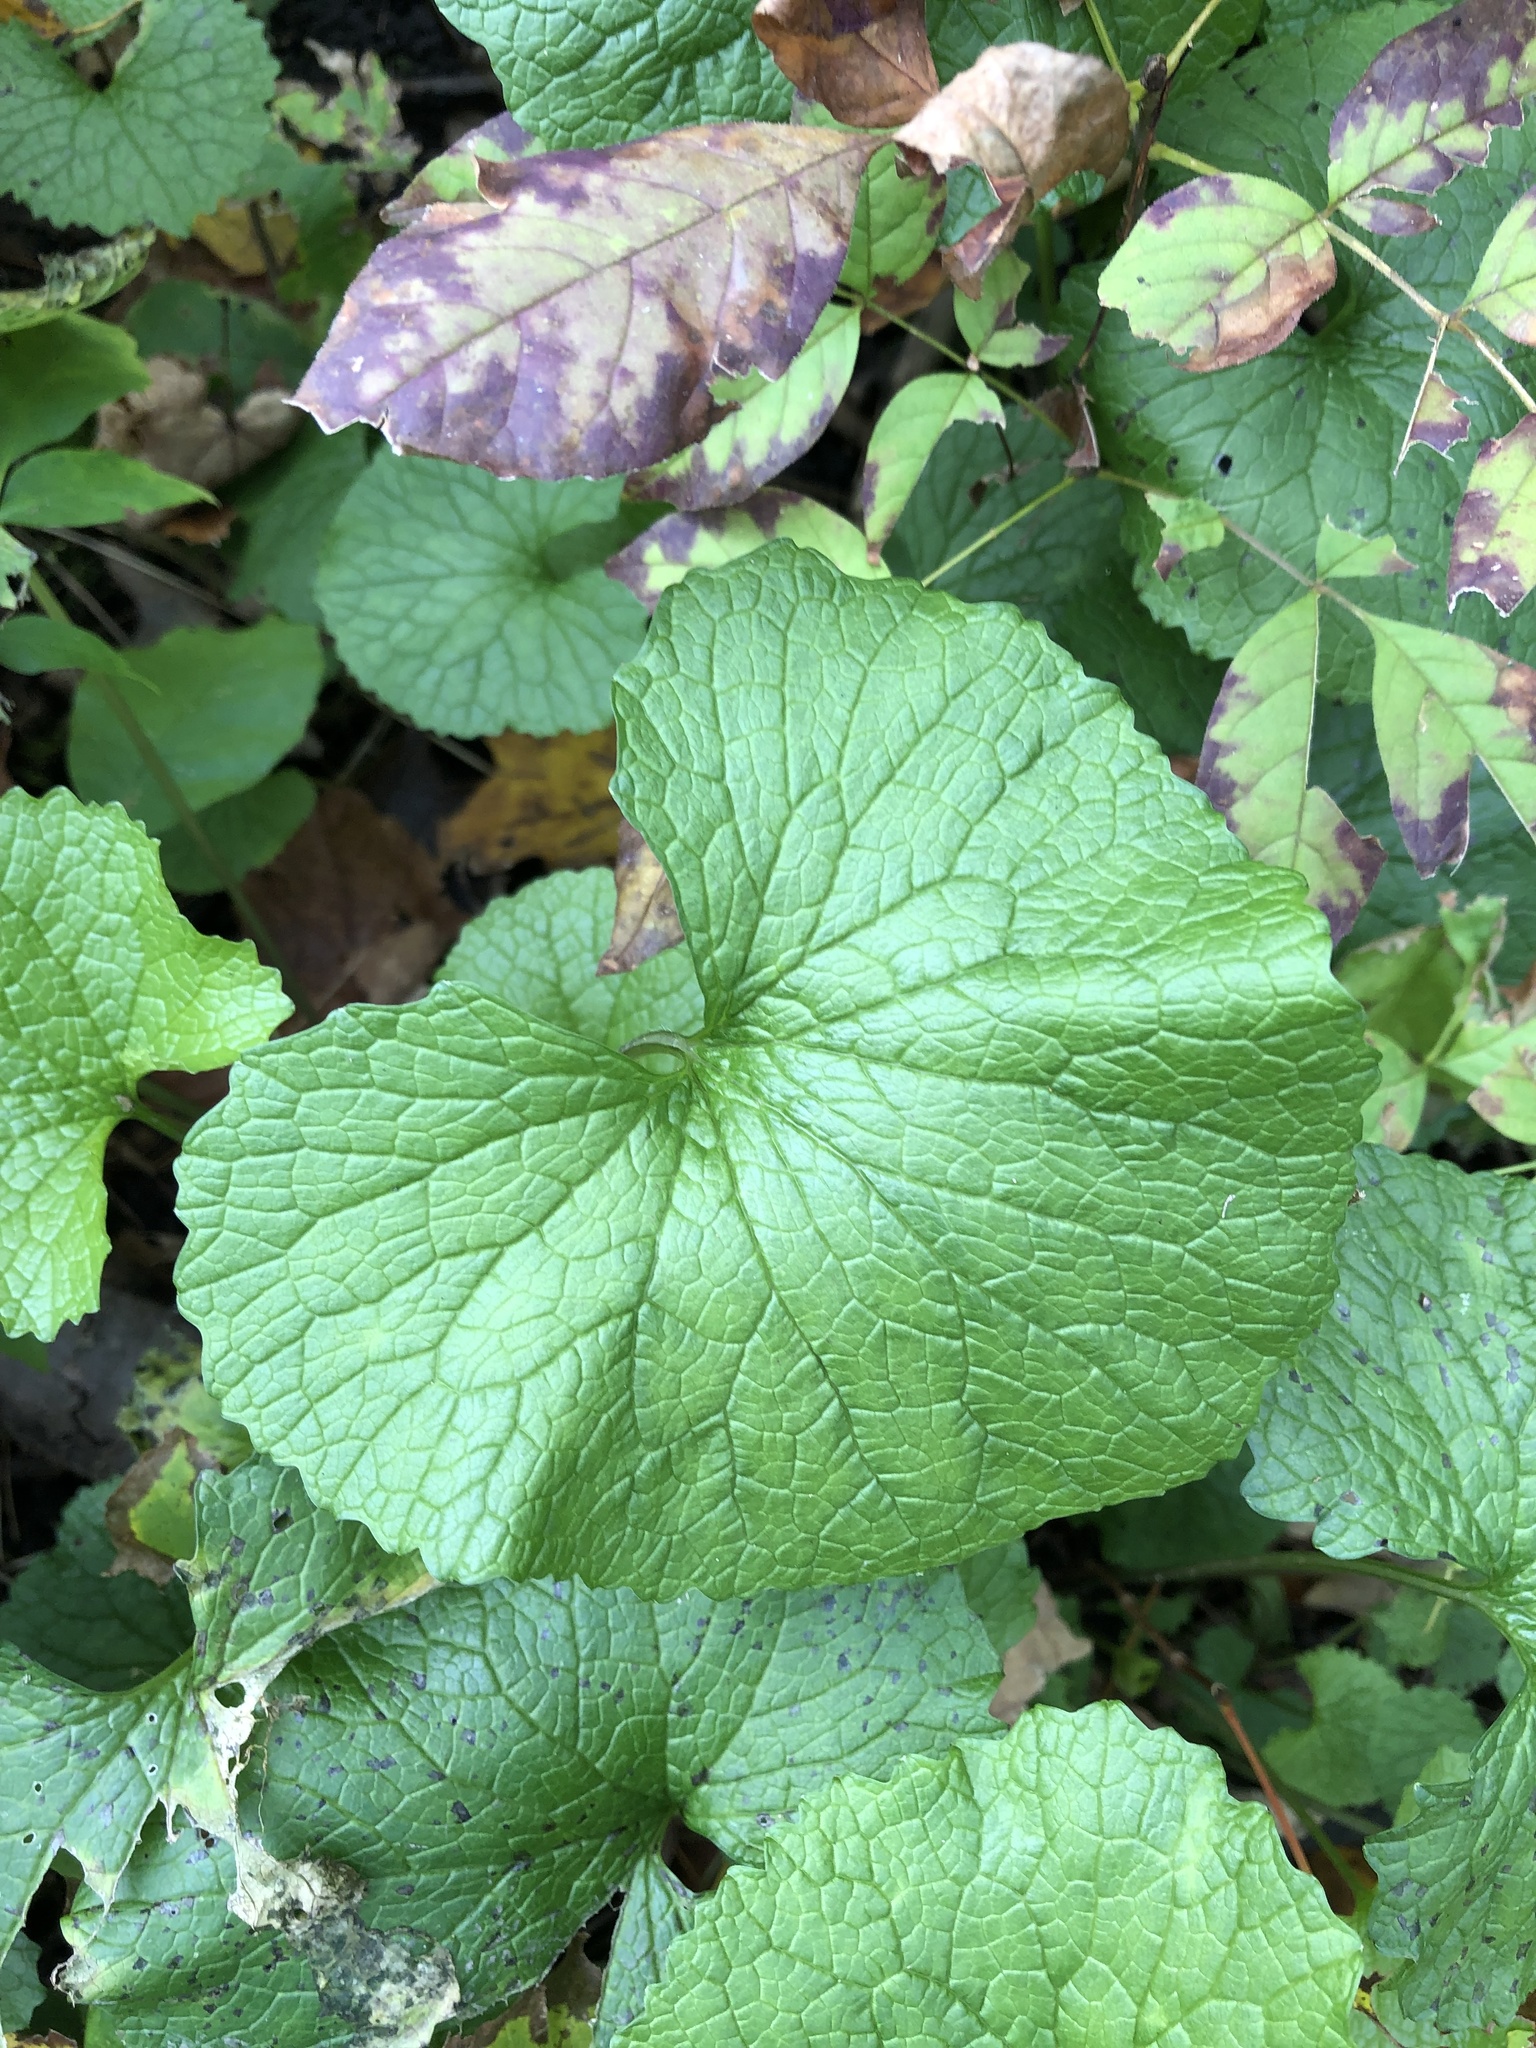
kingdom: Plantae
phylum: Tracheophyta
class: Magnoliopsida
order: Brassicales
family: Brassicaceae
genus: Alliaria
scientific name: Alliaria petiolata
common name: Garlic mustard
